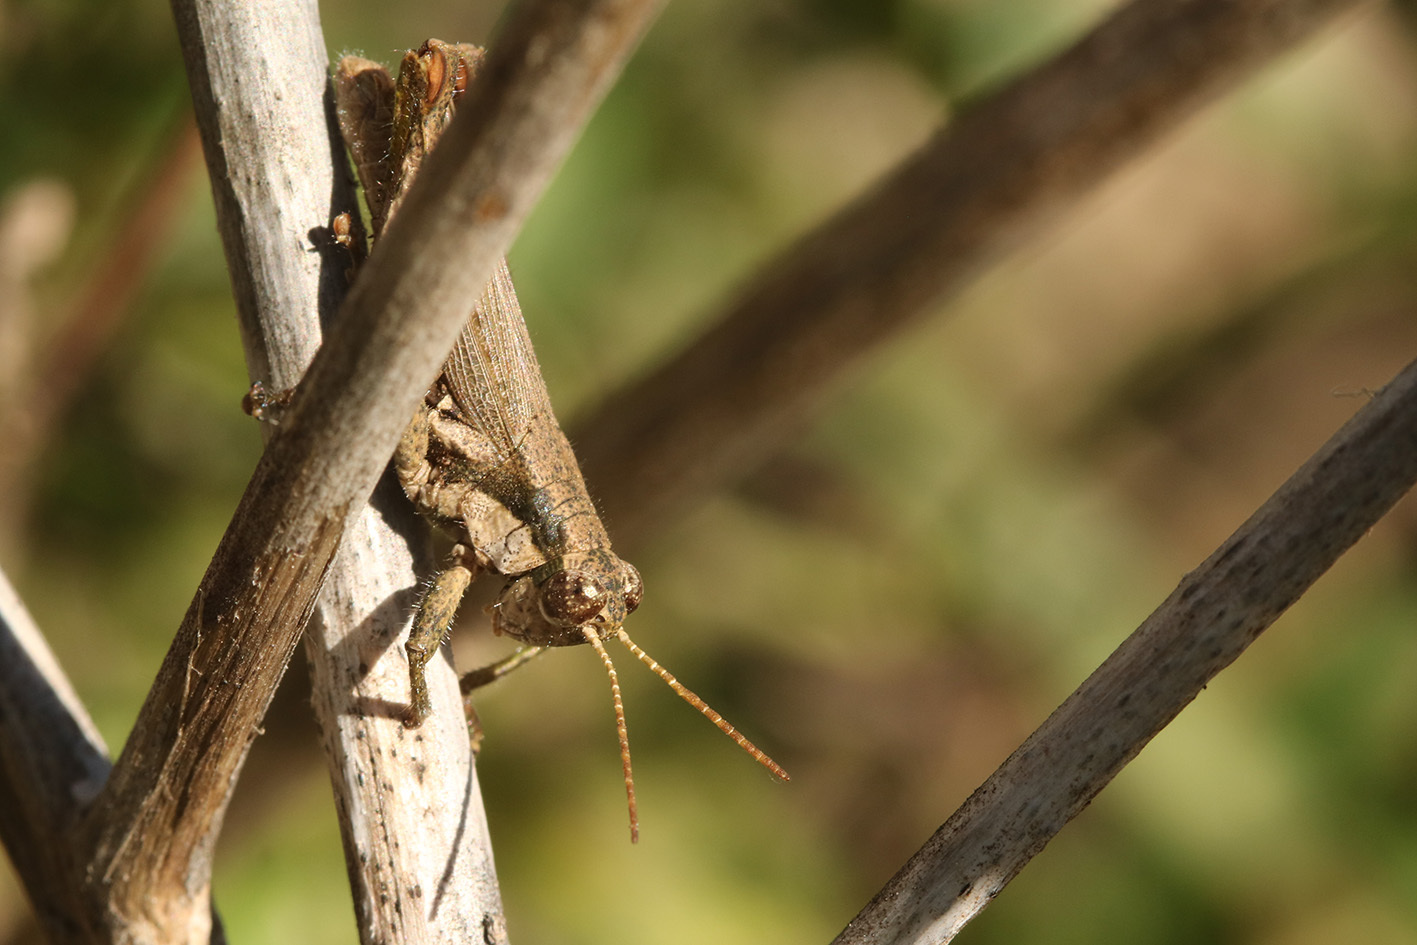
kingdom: Animalia
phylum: Arthropoda
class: Insecta
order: Orthoptera
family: Acrididae
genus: Ronderosia
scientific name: Ronderosia bergii
